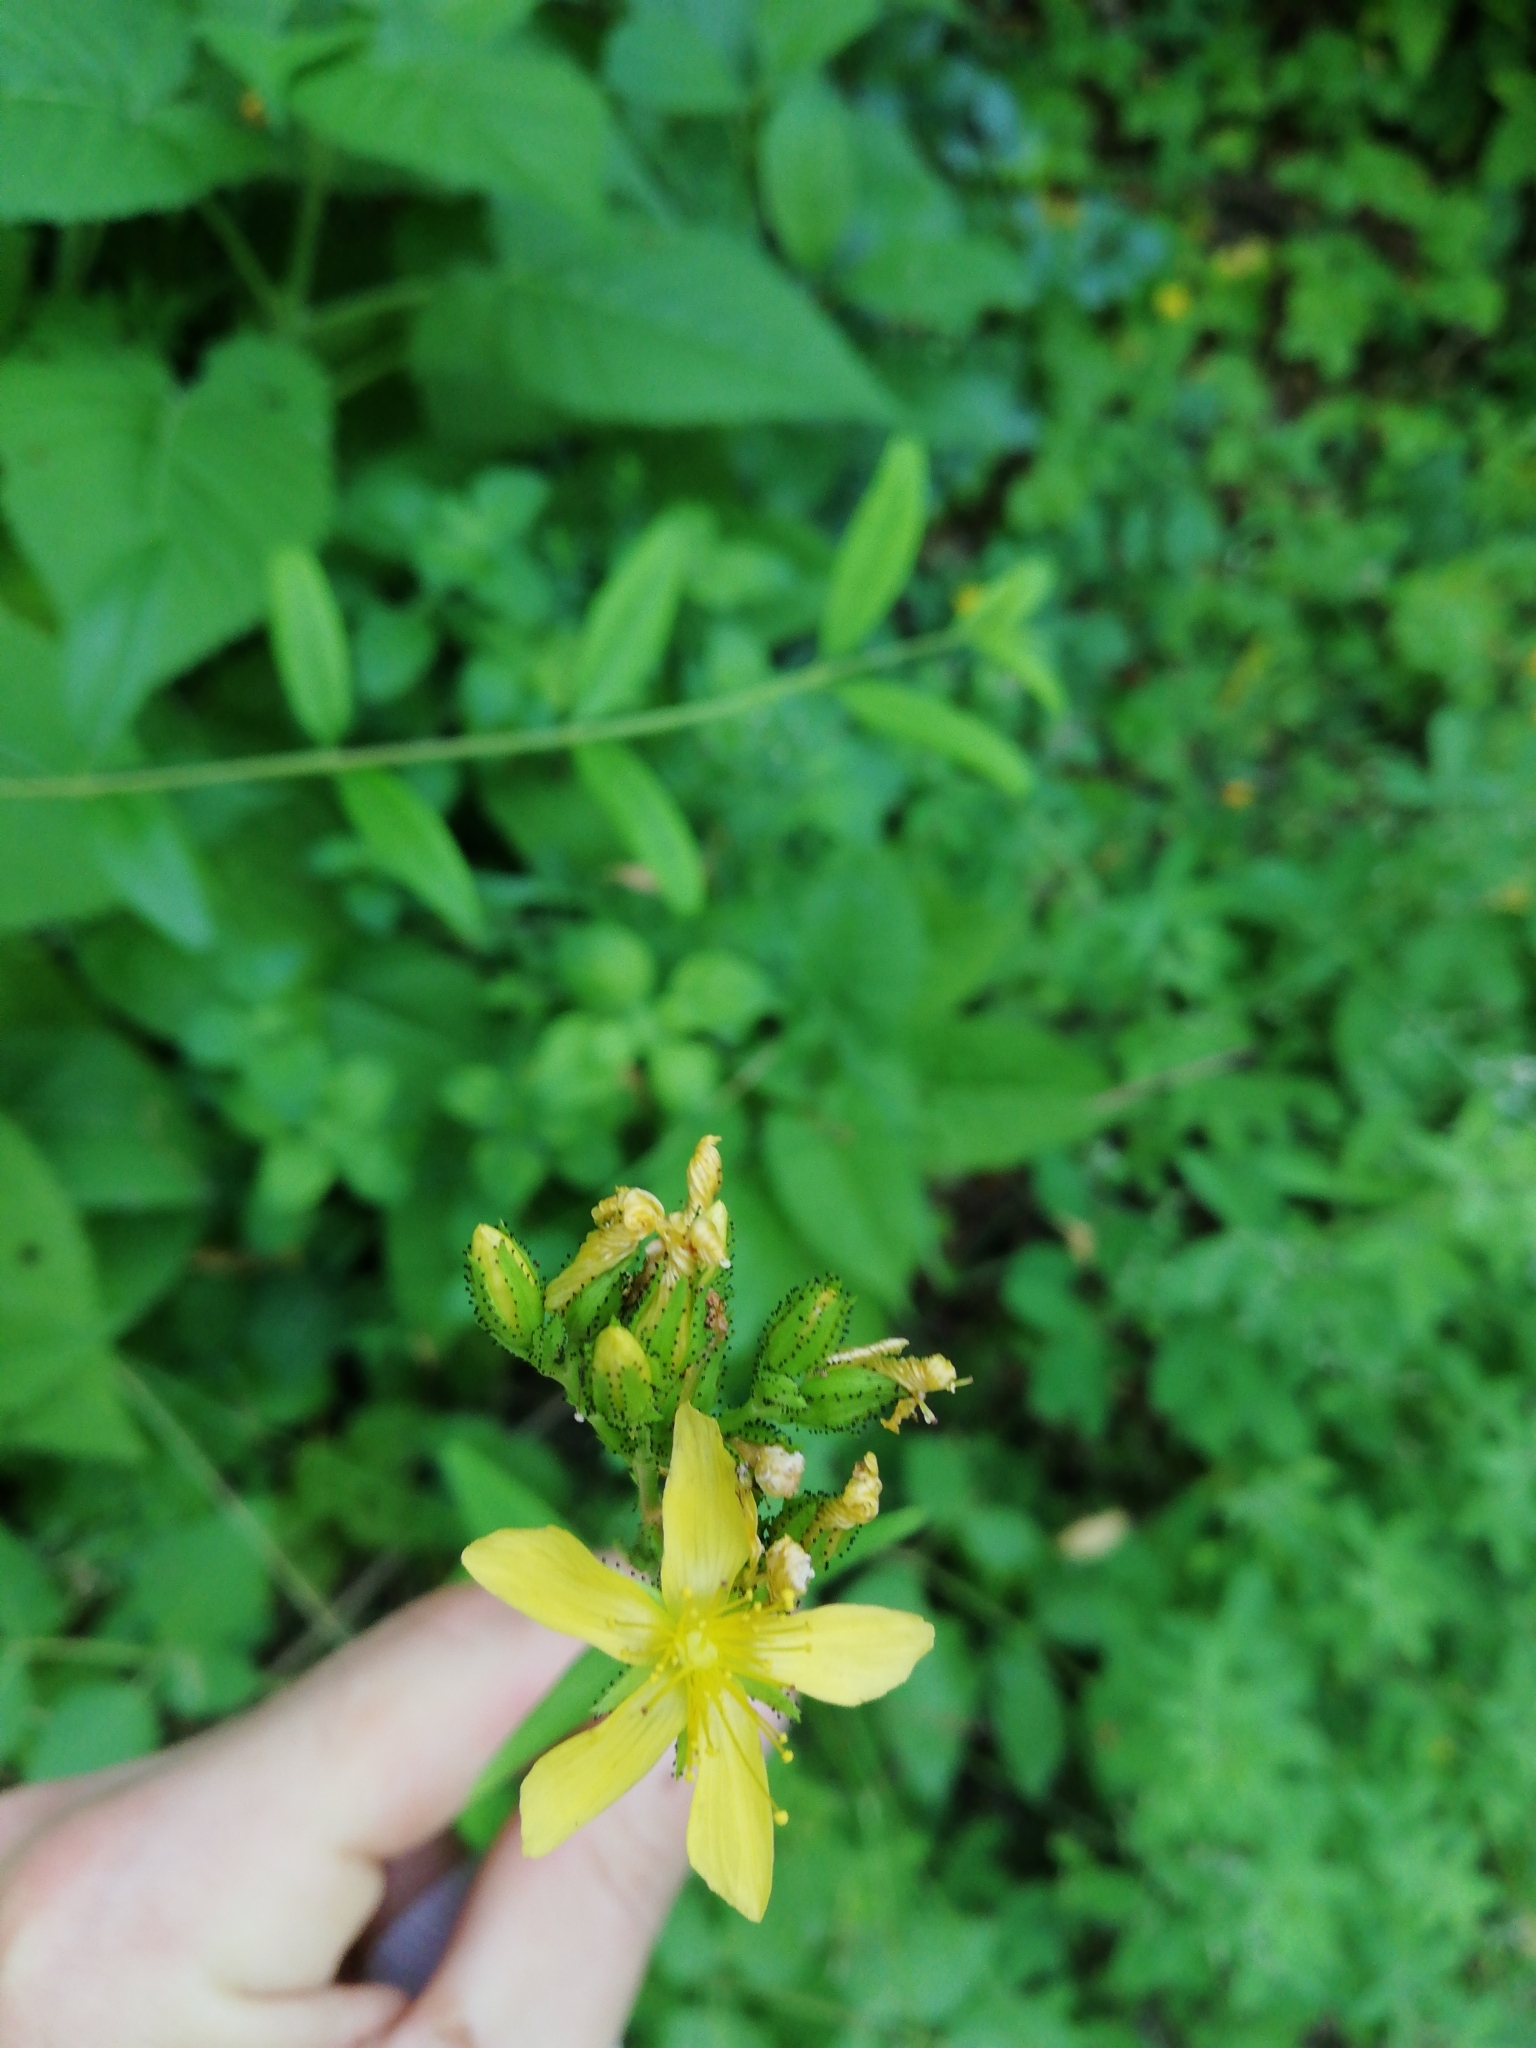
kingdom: Plantae
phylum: Tracheophyta
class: Magnoliopsida
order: Malpighiales
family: Hypericaceae
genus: Hypericum
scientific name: Hypericum montanum
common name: Pale st. john's-wort
